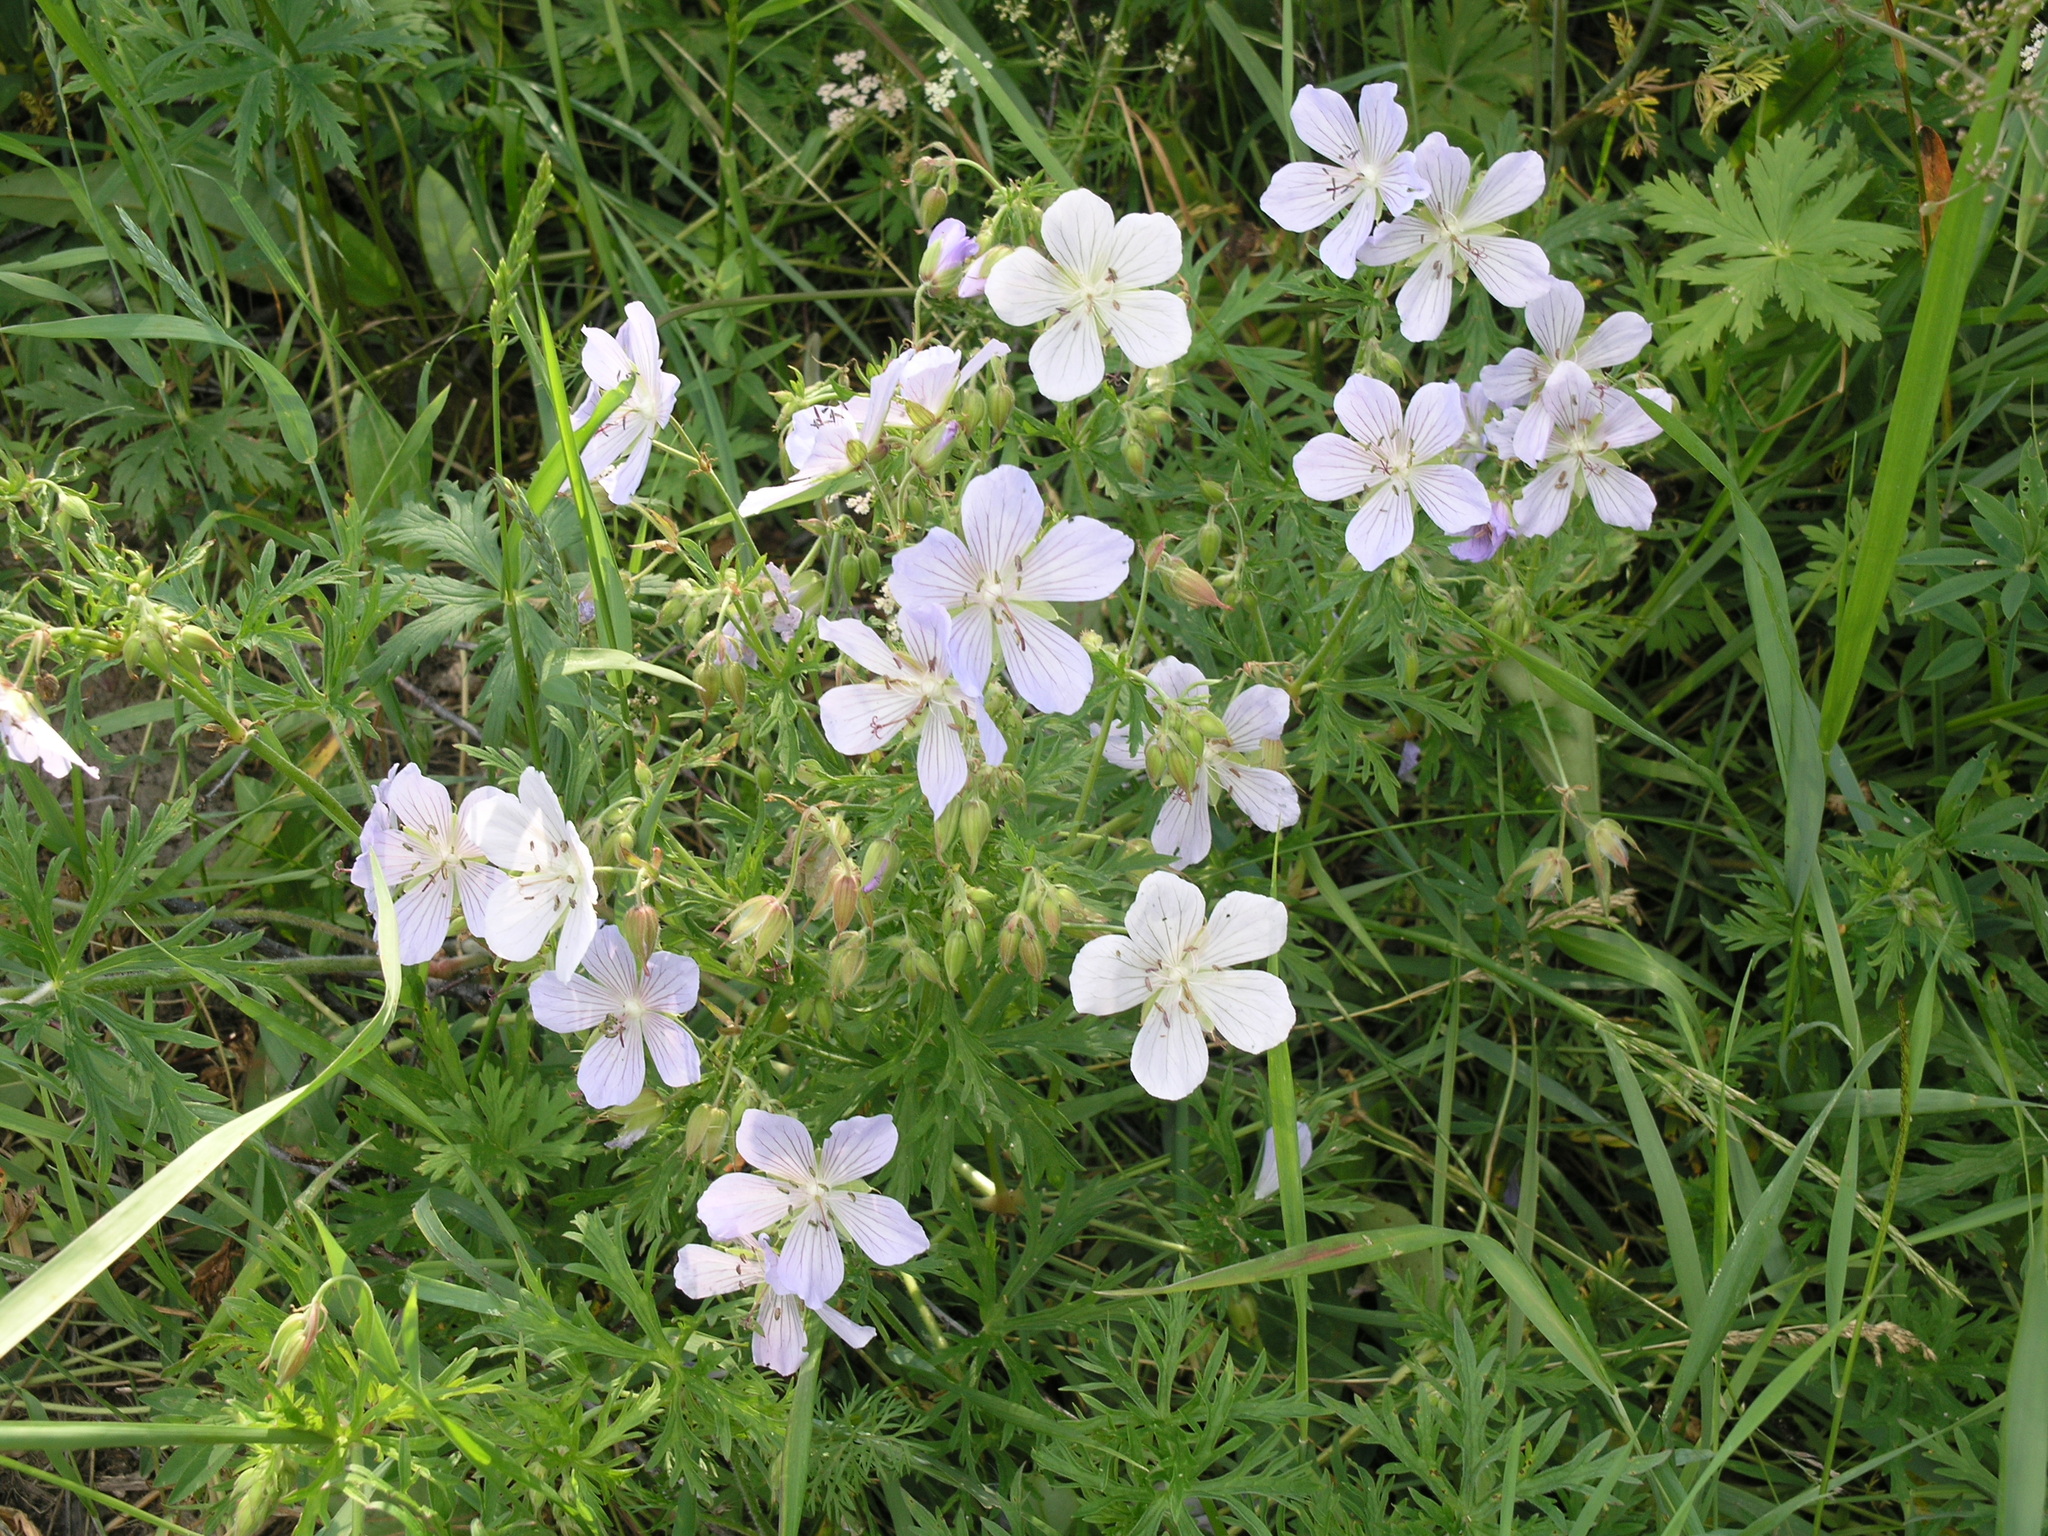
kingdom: Plantae
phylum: Tracheophyta
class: Magnoliopsida
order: Geraniales
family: Geraniaceae
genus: Geranium
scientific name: Geranium pratense
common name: Meadow crane's-bill
